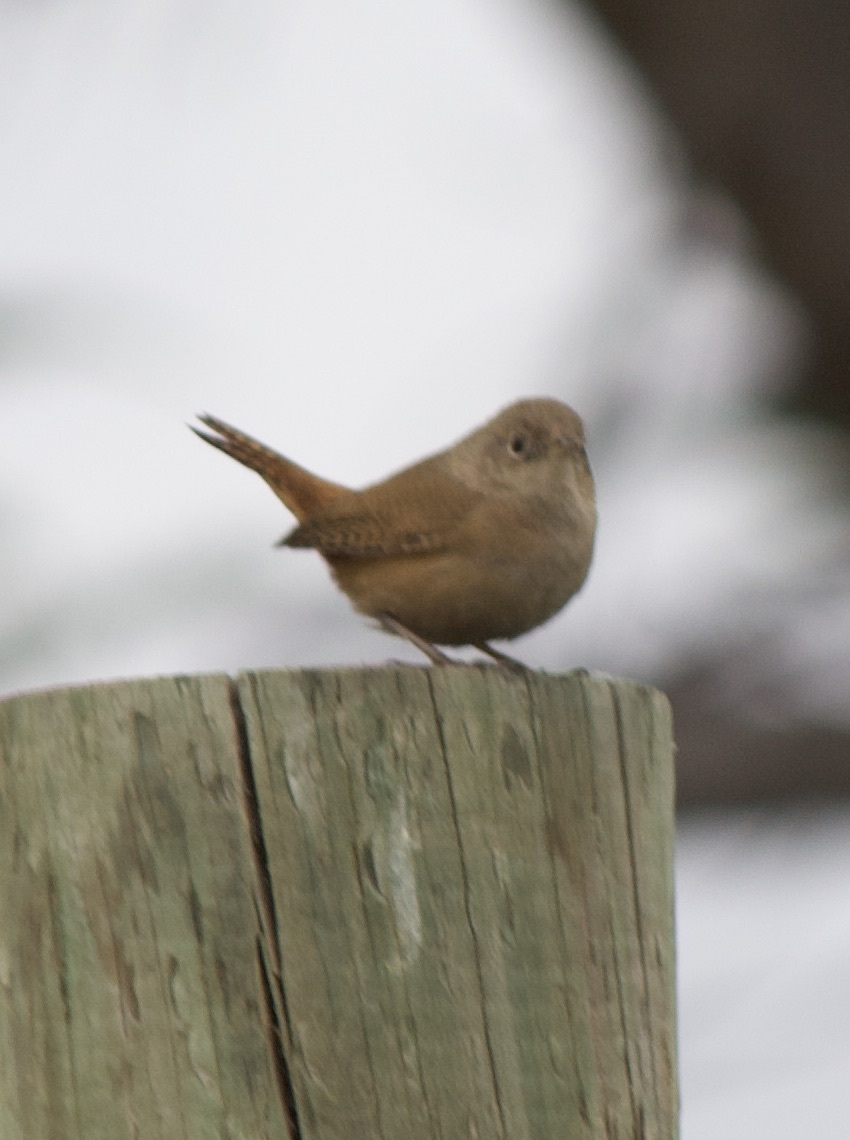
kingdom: Animalia
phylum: Chordata
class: Aves
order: Passeriformes
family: Troglodytidae
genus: Troglodytes
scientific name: Troglodytes aedon
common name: House wren
